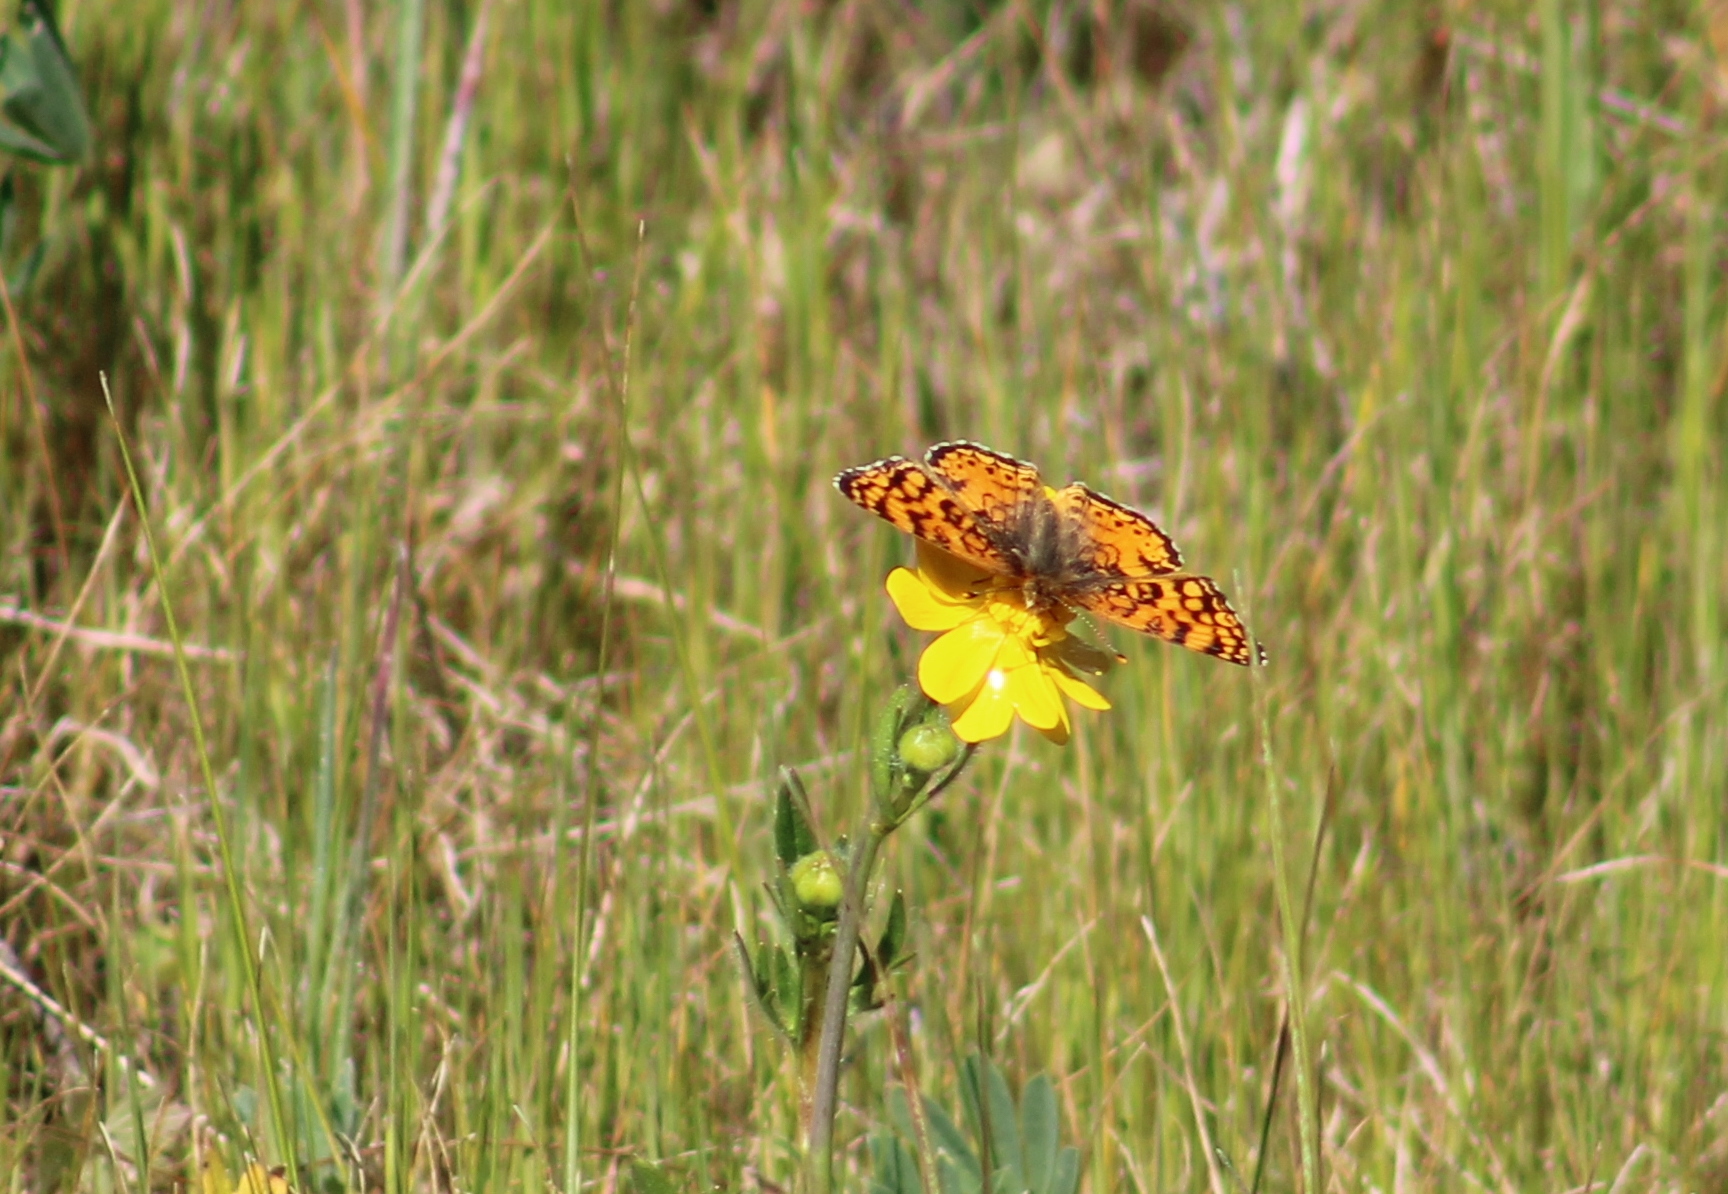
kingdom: Animalia
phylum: Arthropoda
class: Insecta
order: Lepidoptera
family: Nymphalidae
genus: Eresia
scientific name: Eresia aveyrona
